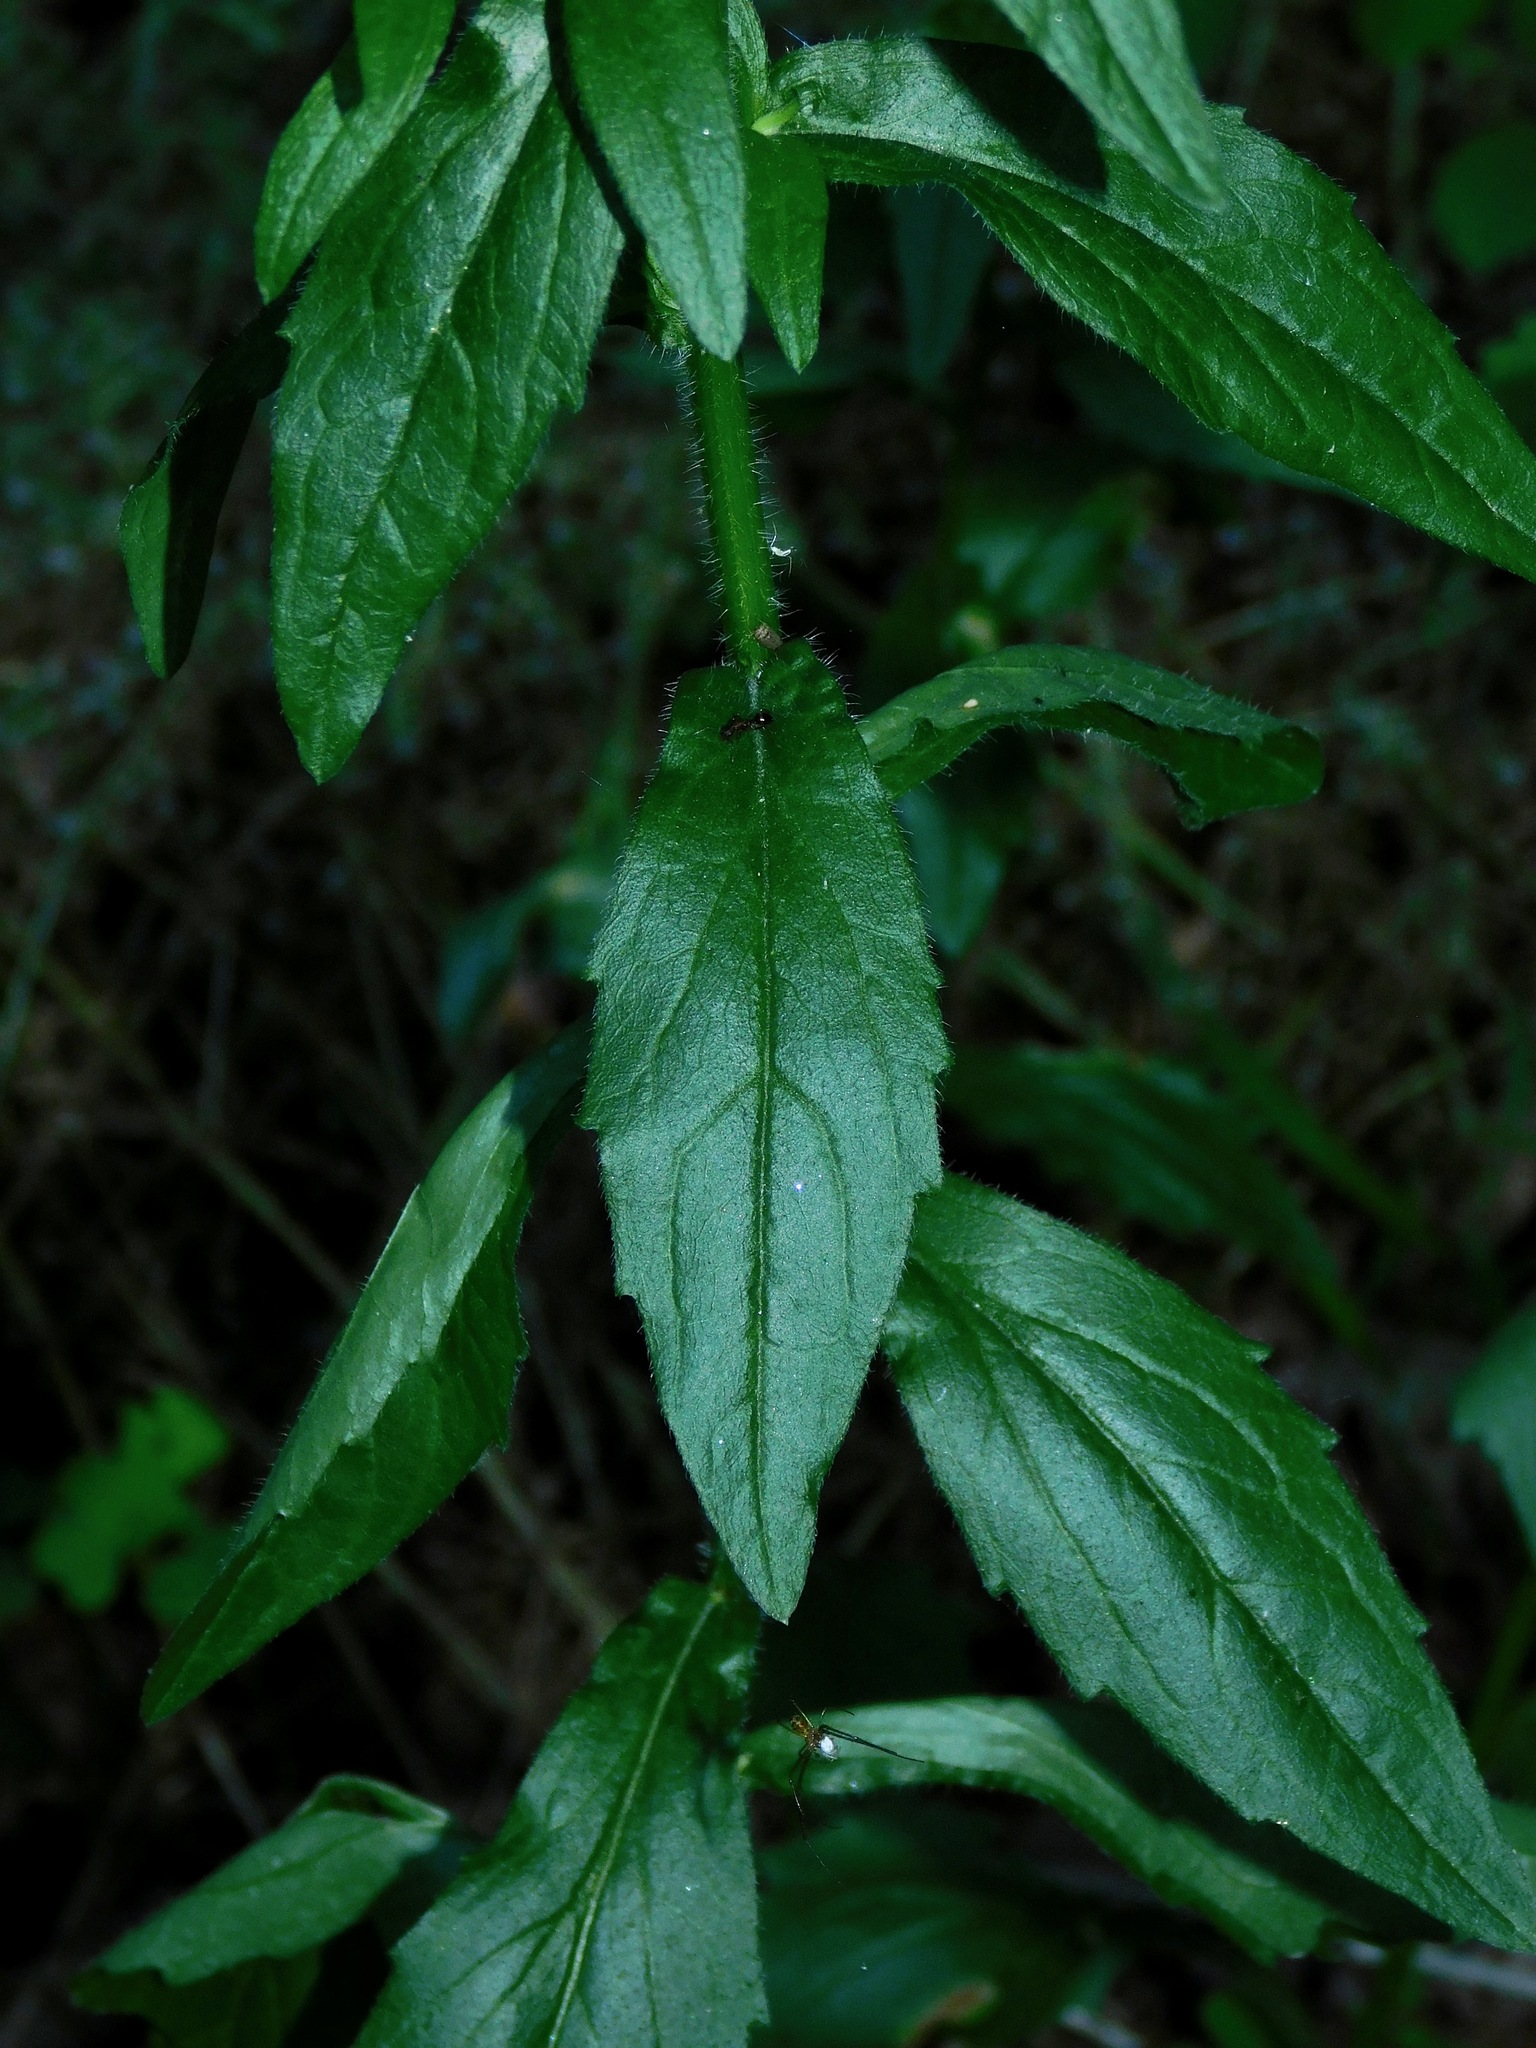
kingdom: Plantae
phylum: Tracheophyta
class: Magnoliopsida
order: Asterales
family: Asteraceae
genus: Erigeron
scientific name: Erigeron annuus
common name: Tall fleabane
